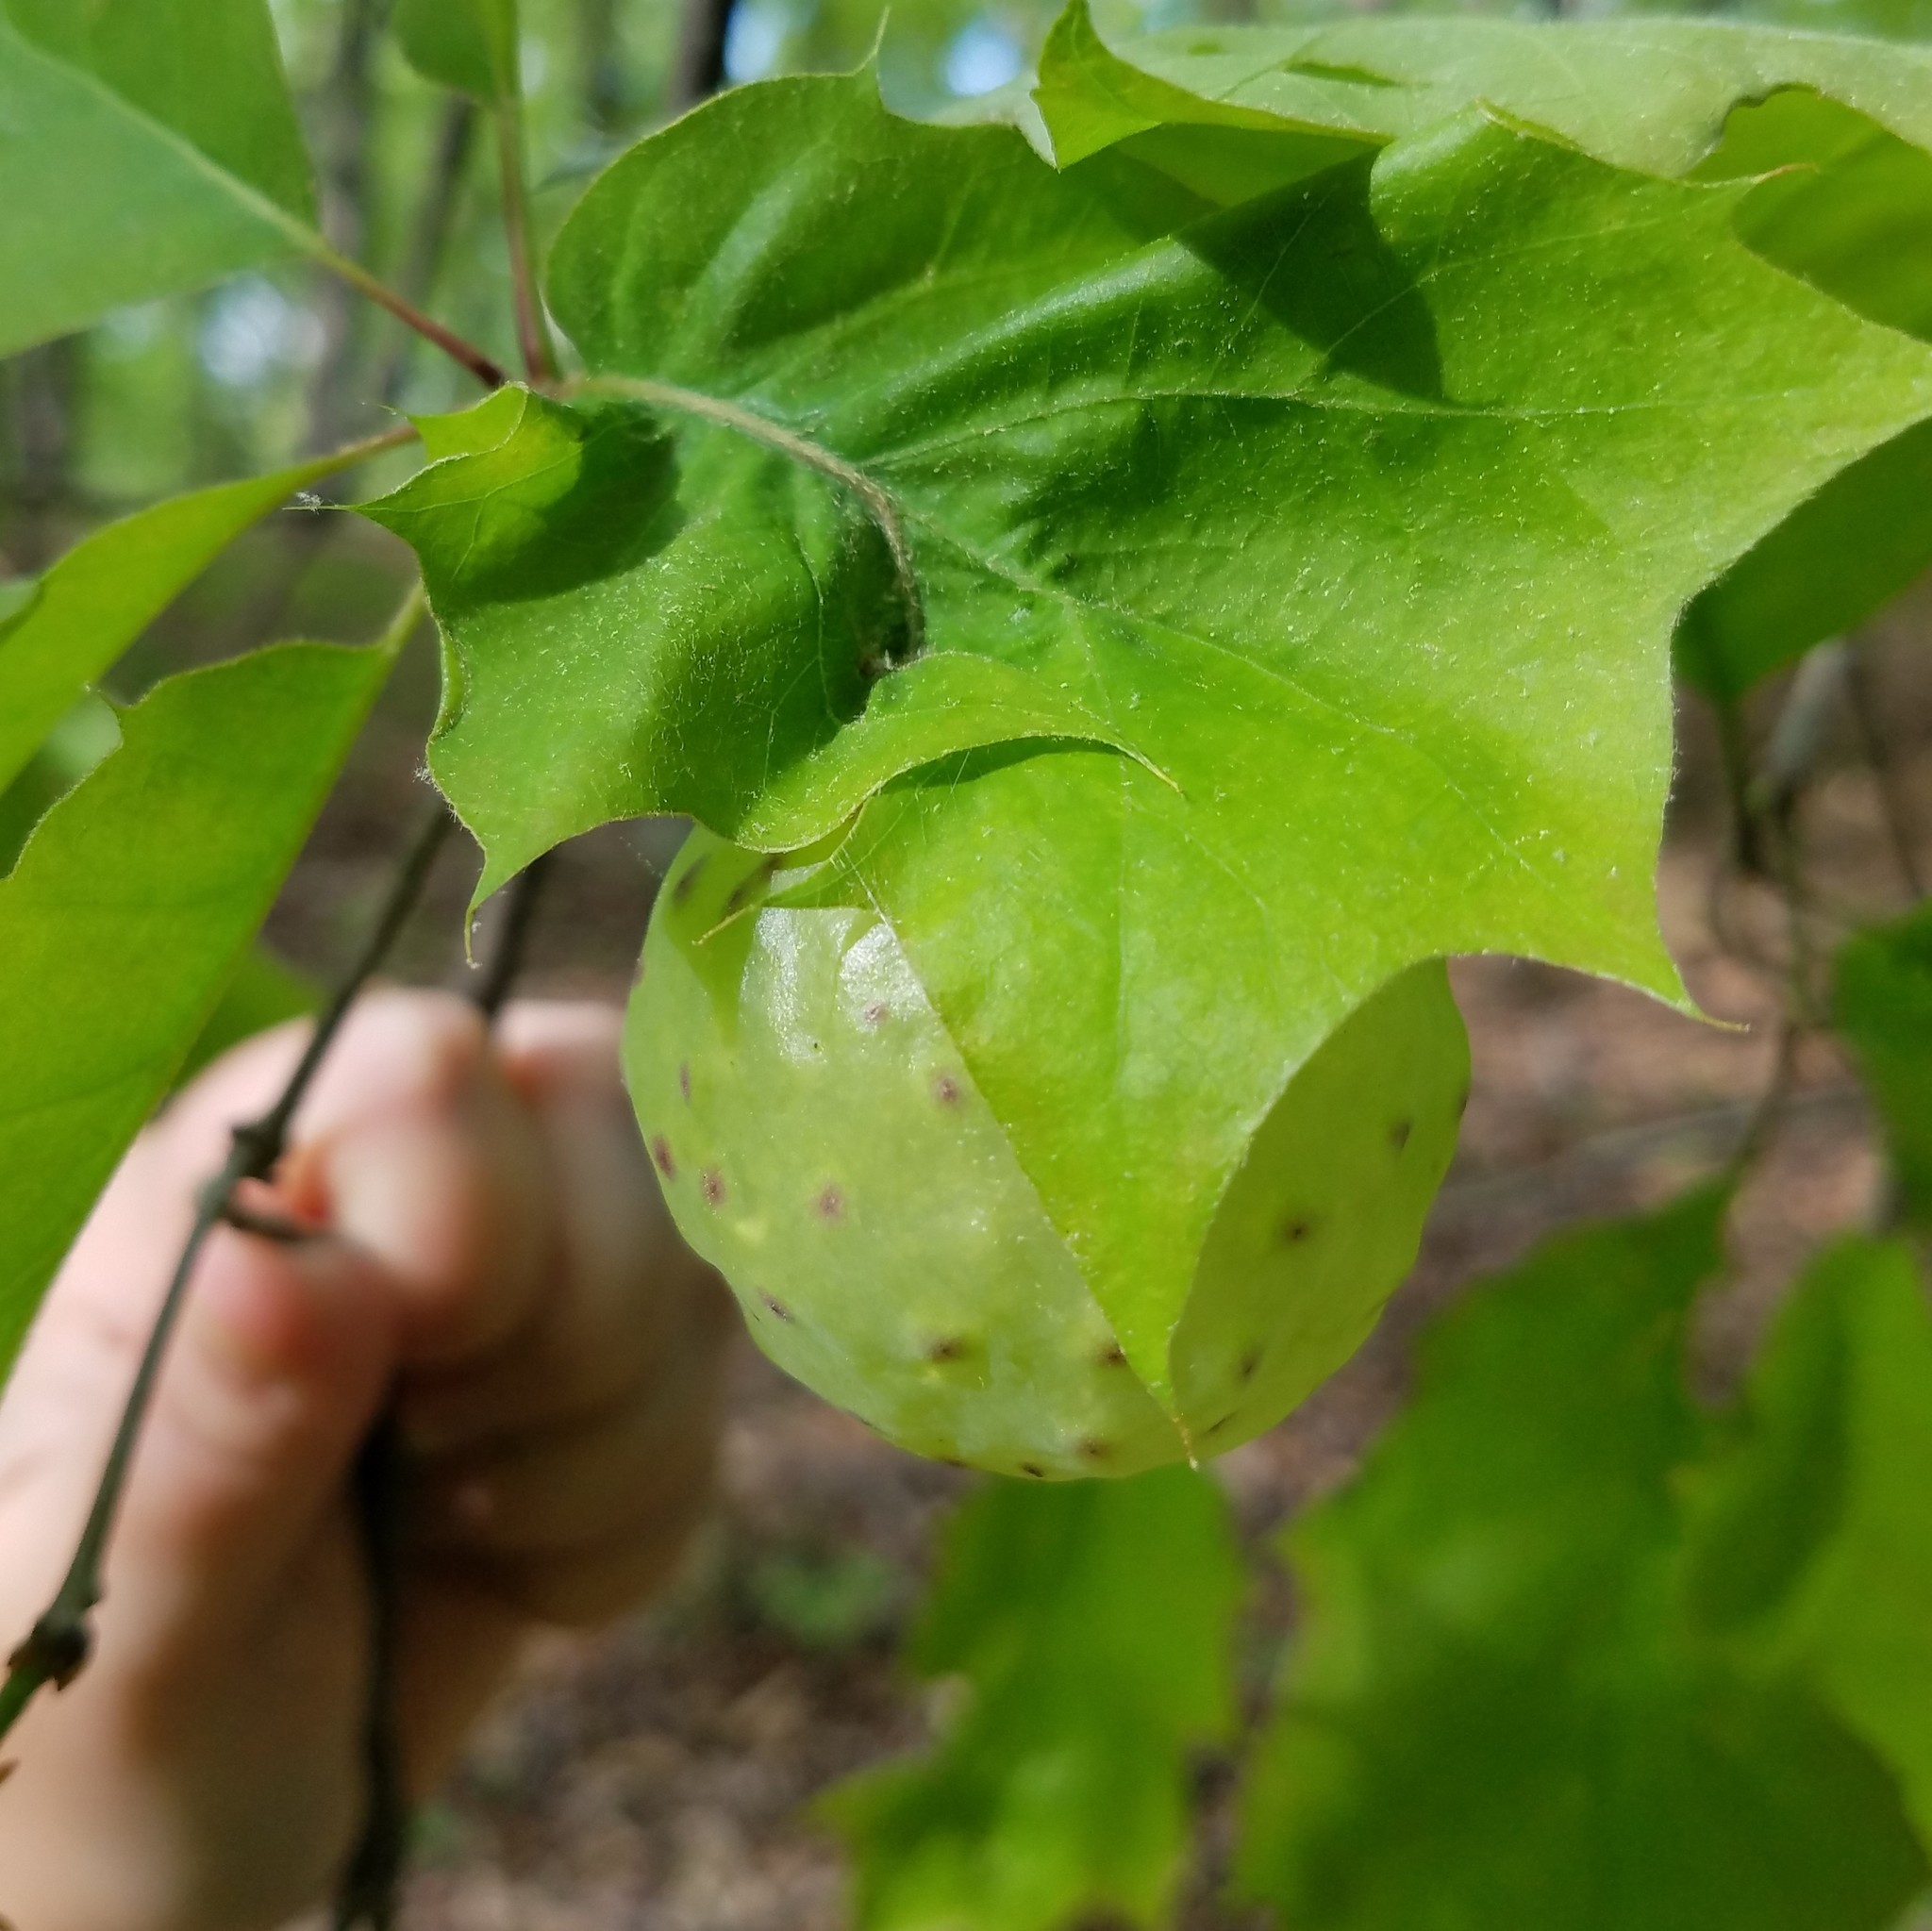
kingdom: Animalia
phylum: Arthropoda
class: Insecta
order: Hymenoptera
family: Cynipidae
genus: Amphibolips
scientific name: Amphibolips
